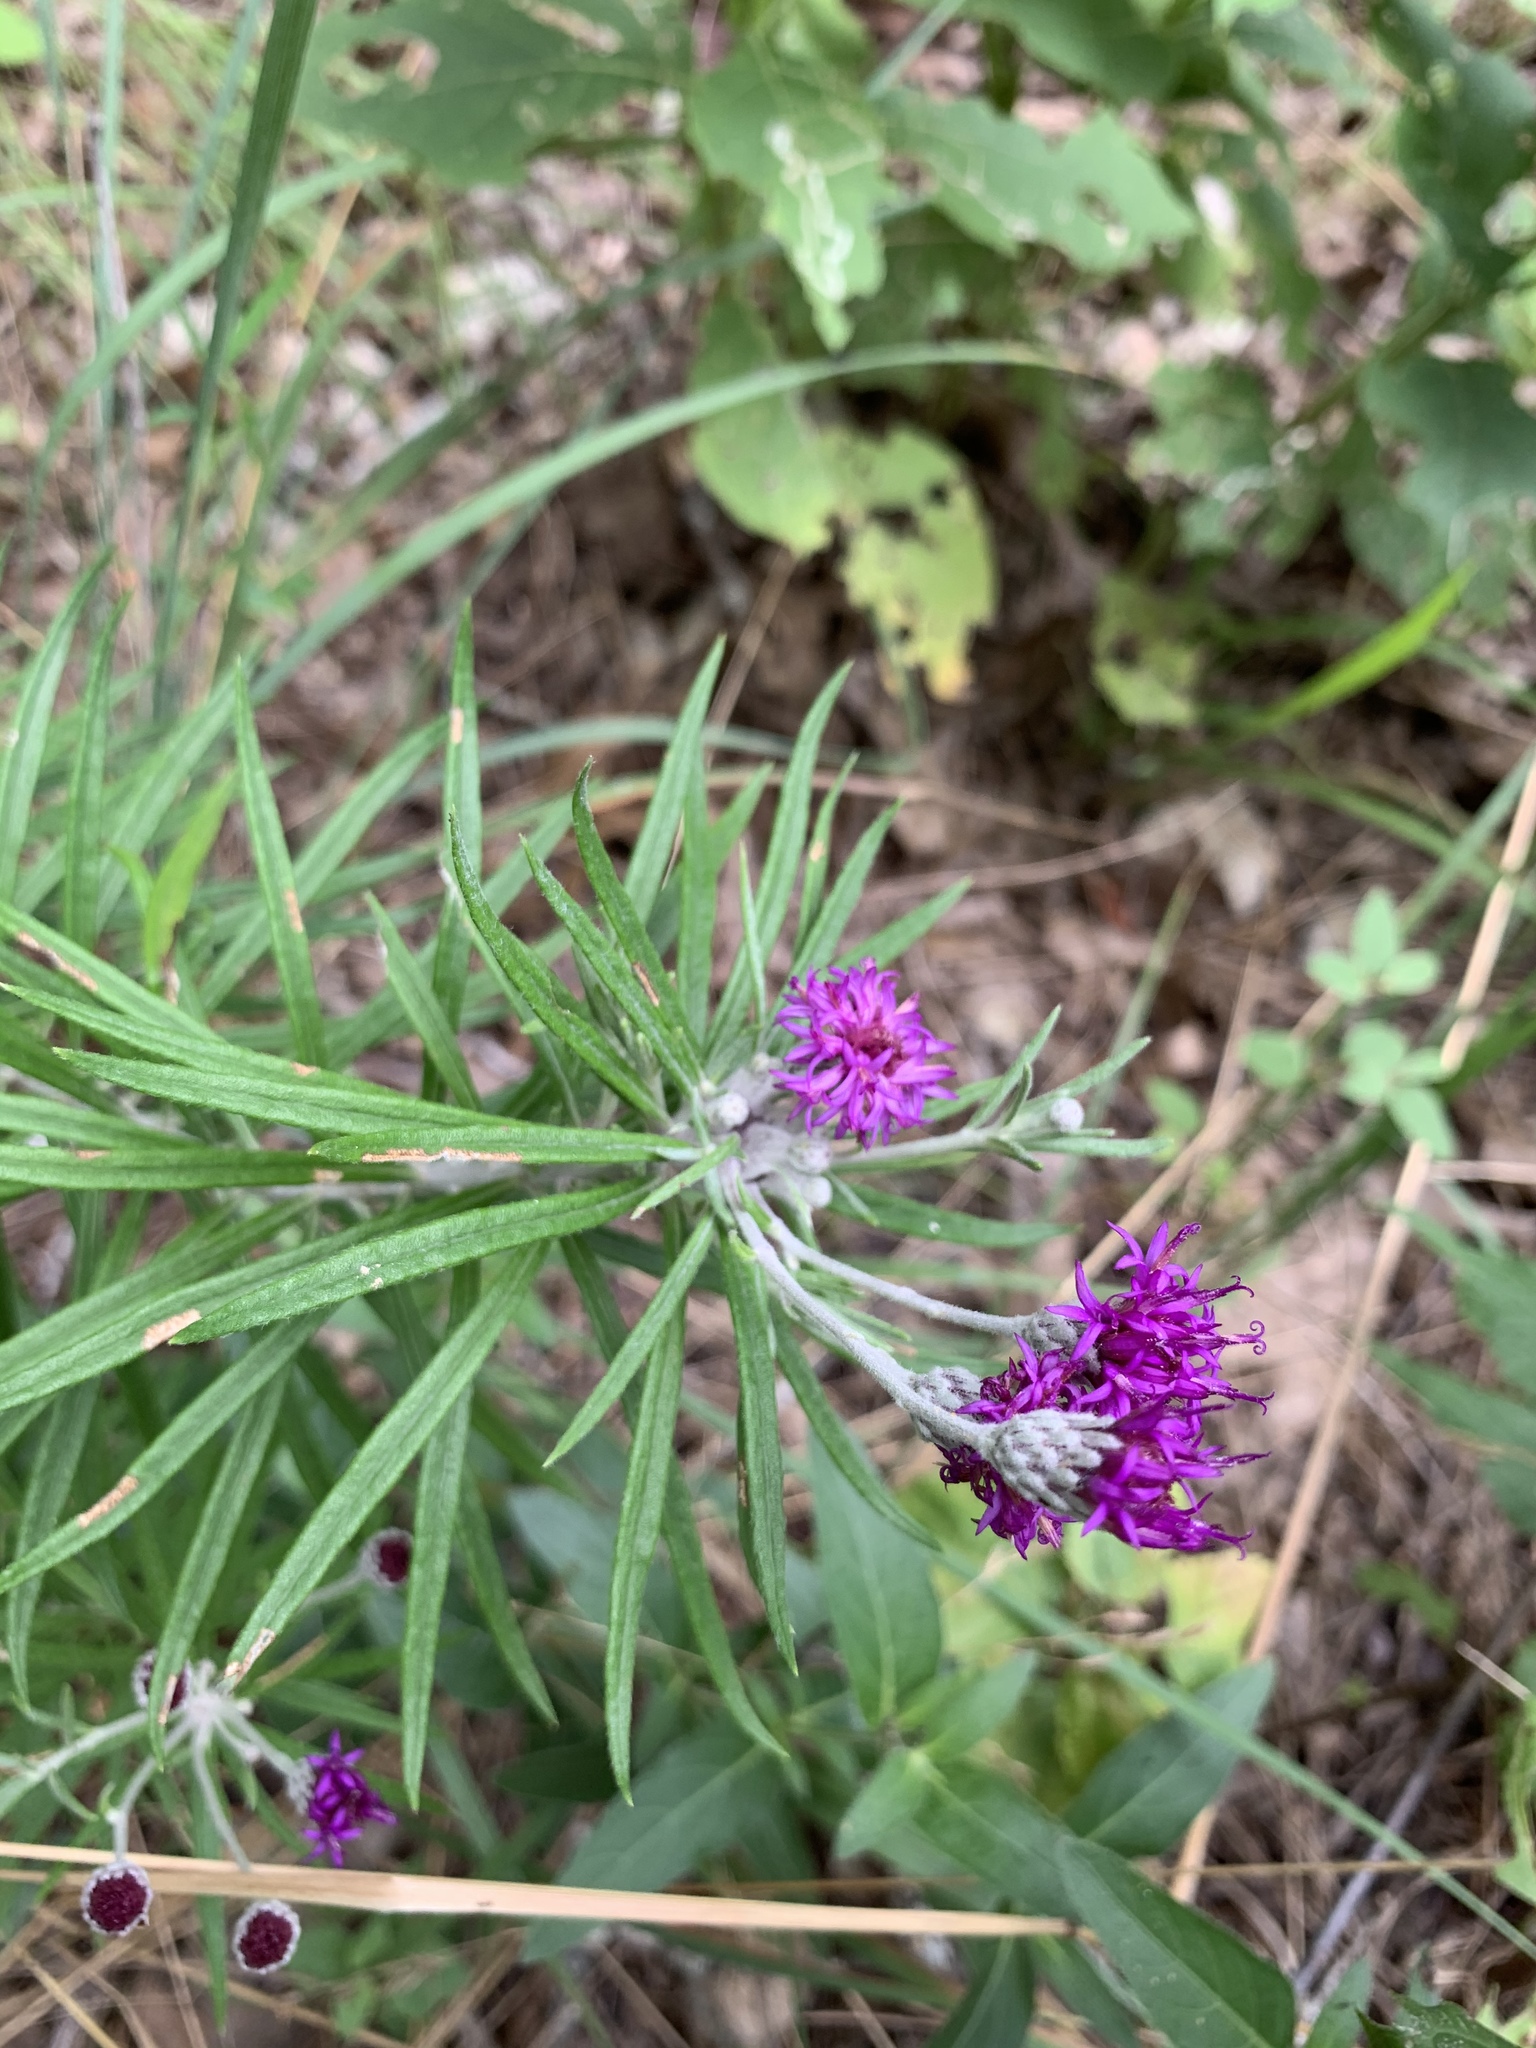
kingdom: Plantae
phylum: Tracheophyta
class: Magnoliopsida
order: Asterales
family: Asteraceae
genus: Vernonia
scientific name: Vernonia lindheimeri
